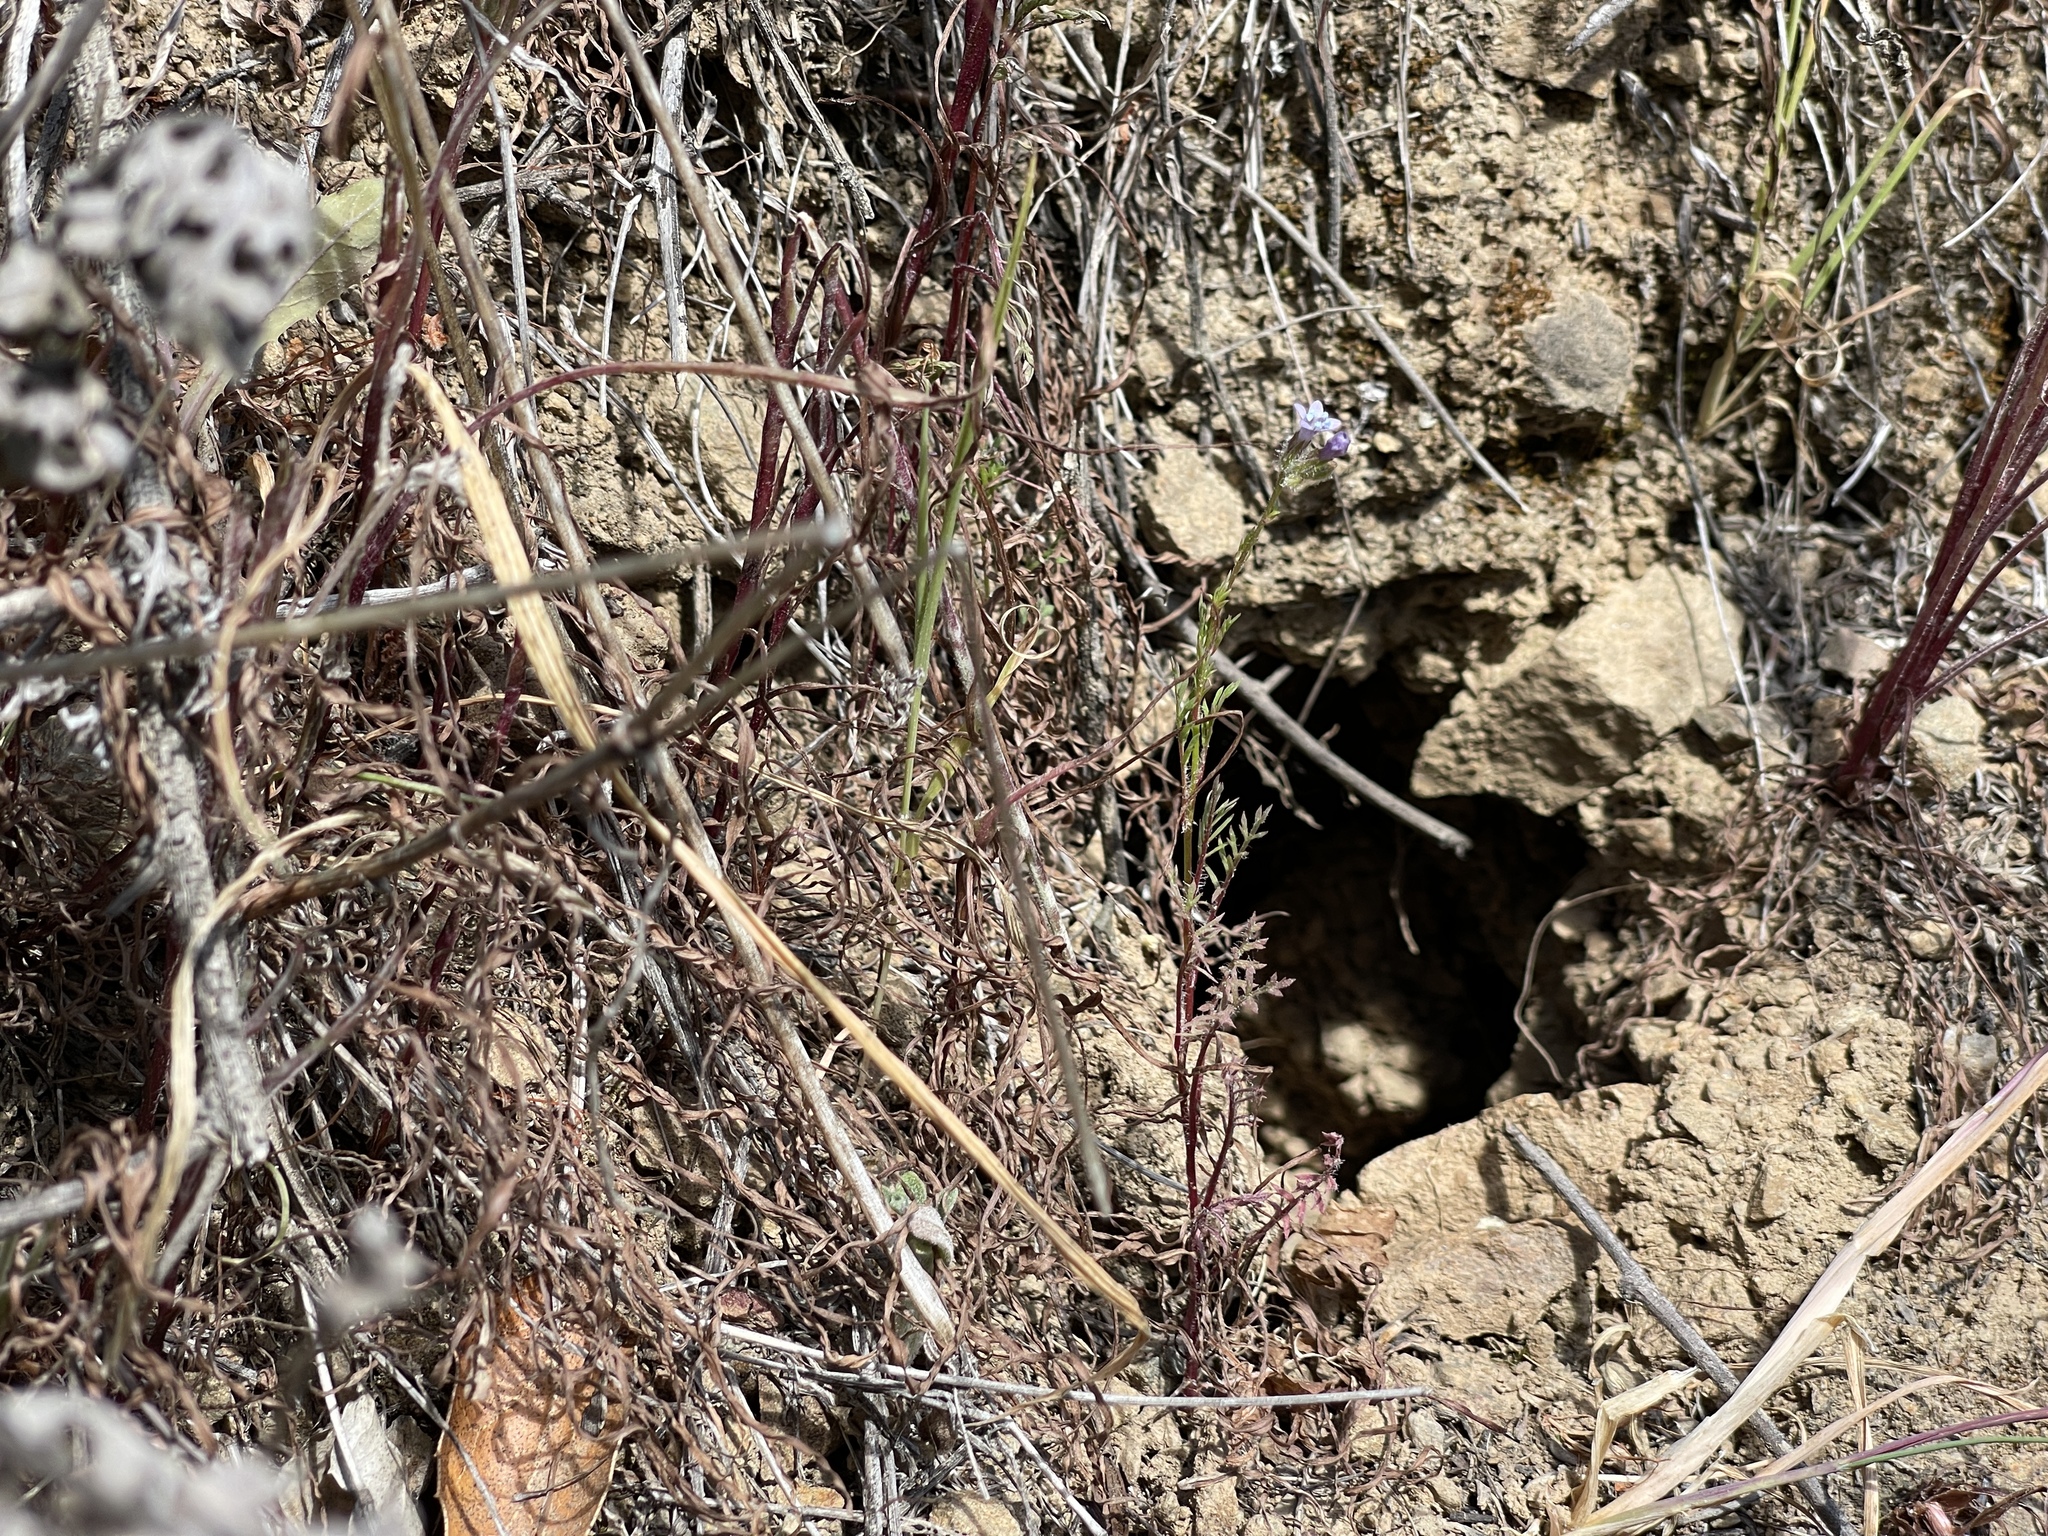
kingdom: Plantae
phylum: Tracheophyta
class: Magnoliopsida
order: Ericales
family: Polemoniaceae
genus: Gilia
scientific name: Gilia achilleifolia
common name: California gily-flower
